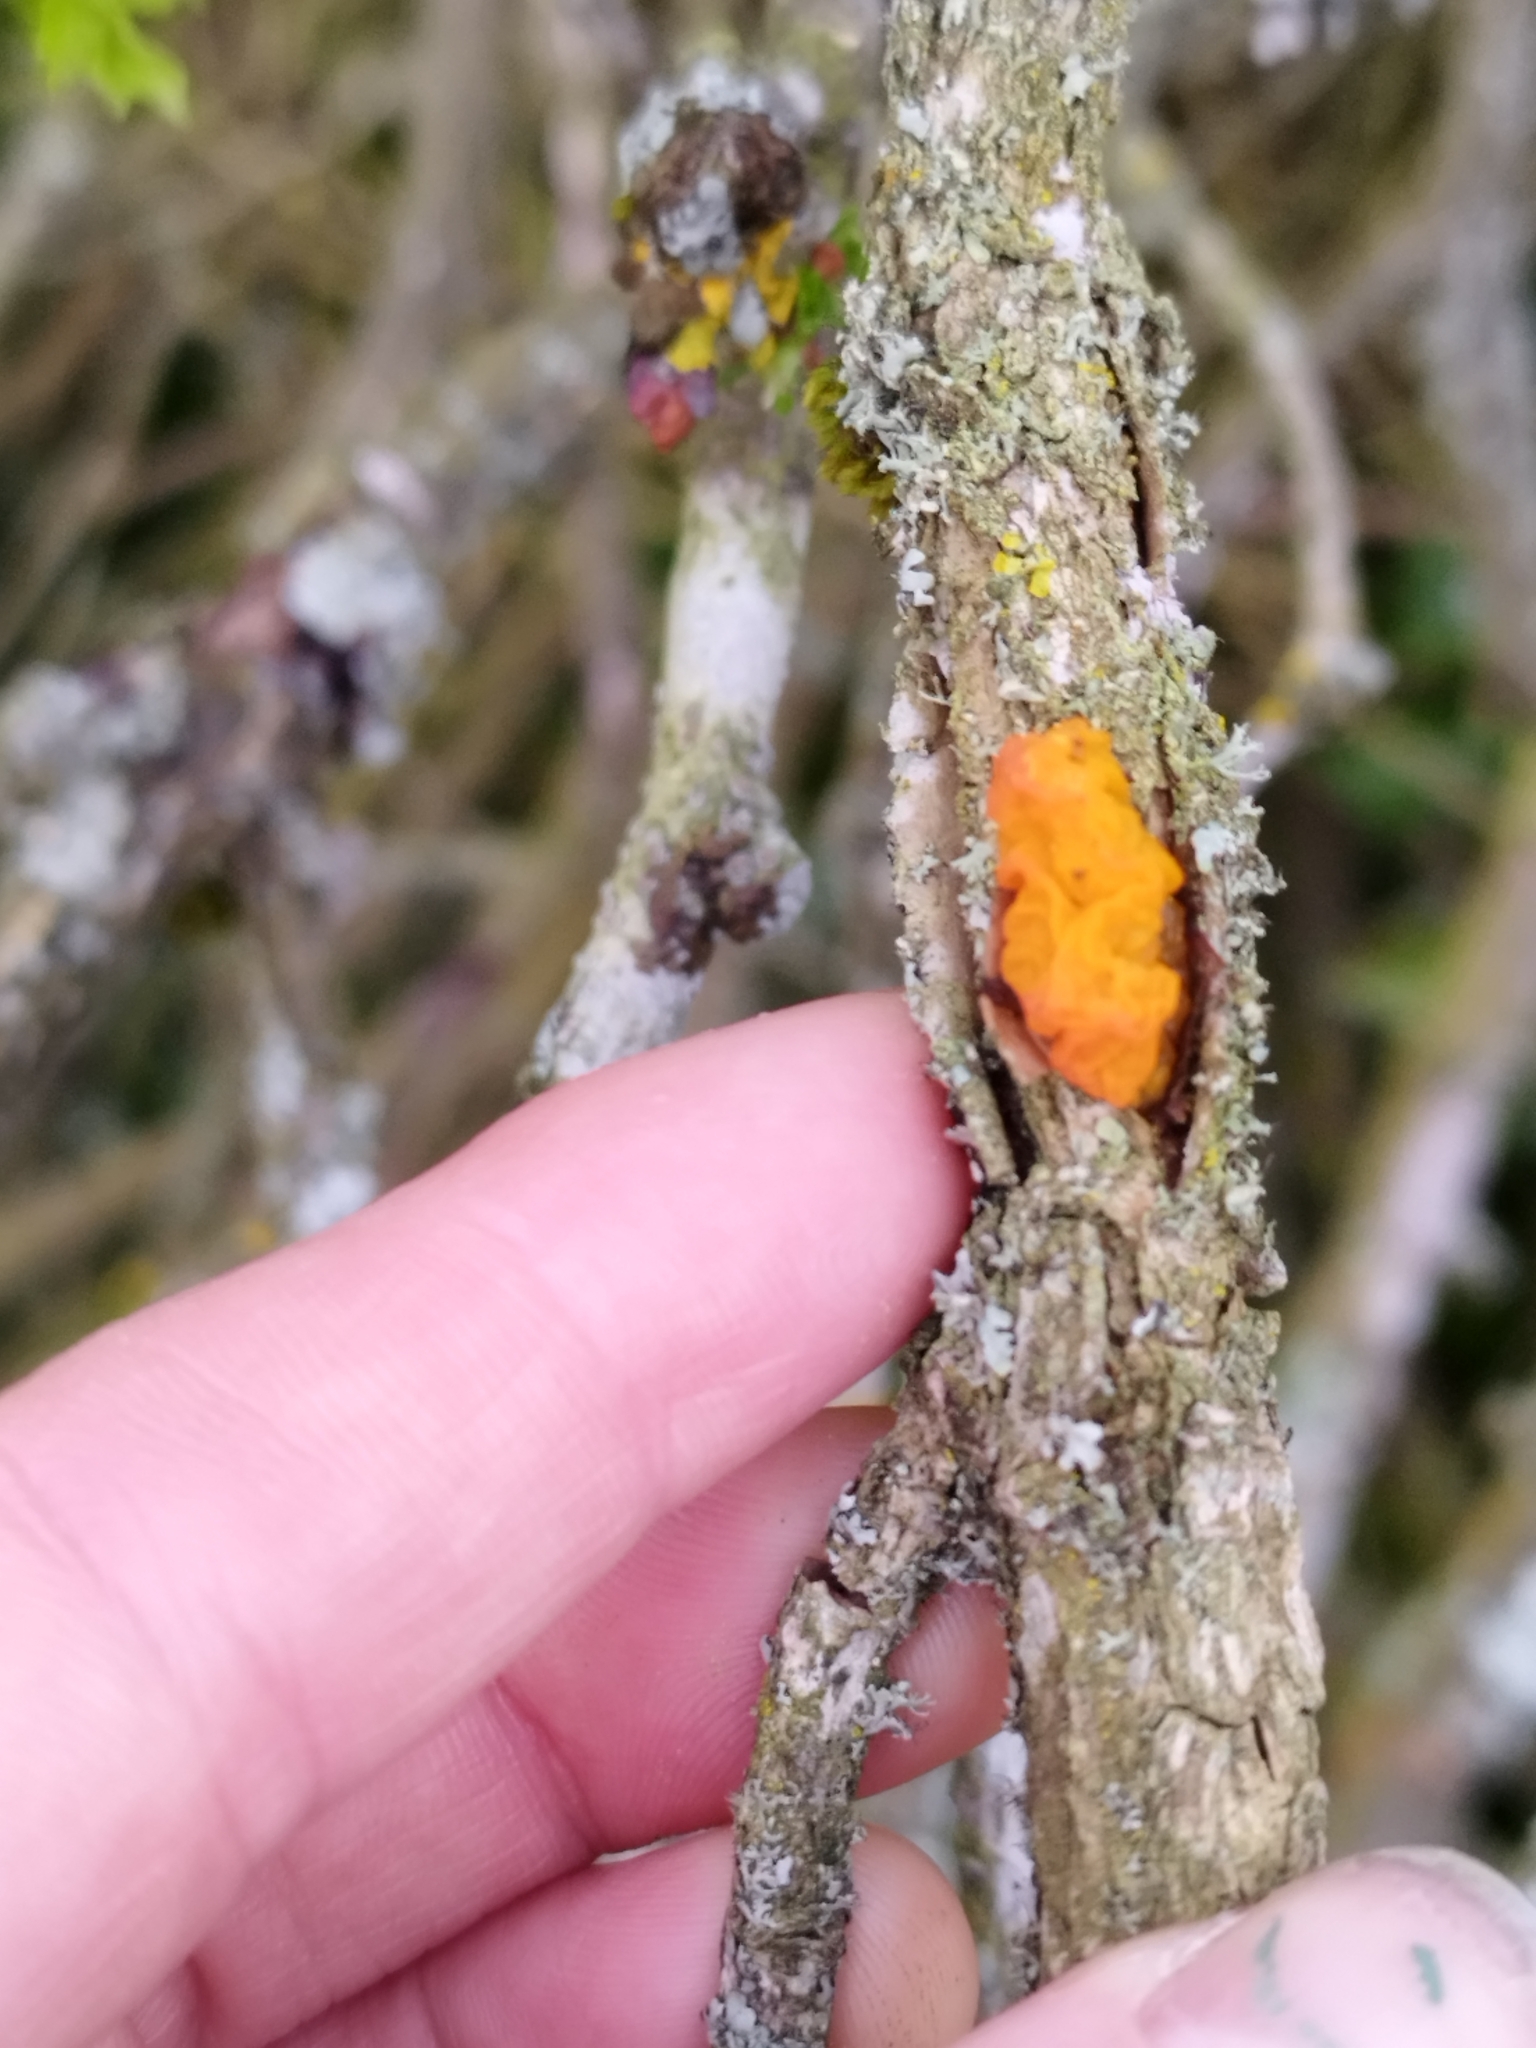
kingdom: Fungi
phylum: Basidiomycota
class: Tremellomycetes
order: Tremellales
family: Tremellaceae
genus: Tremella
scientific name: Tremella mesenterica
